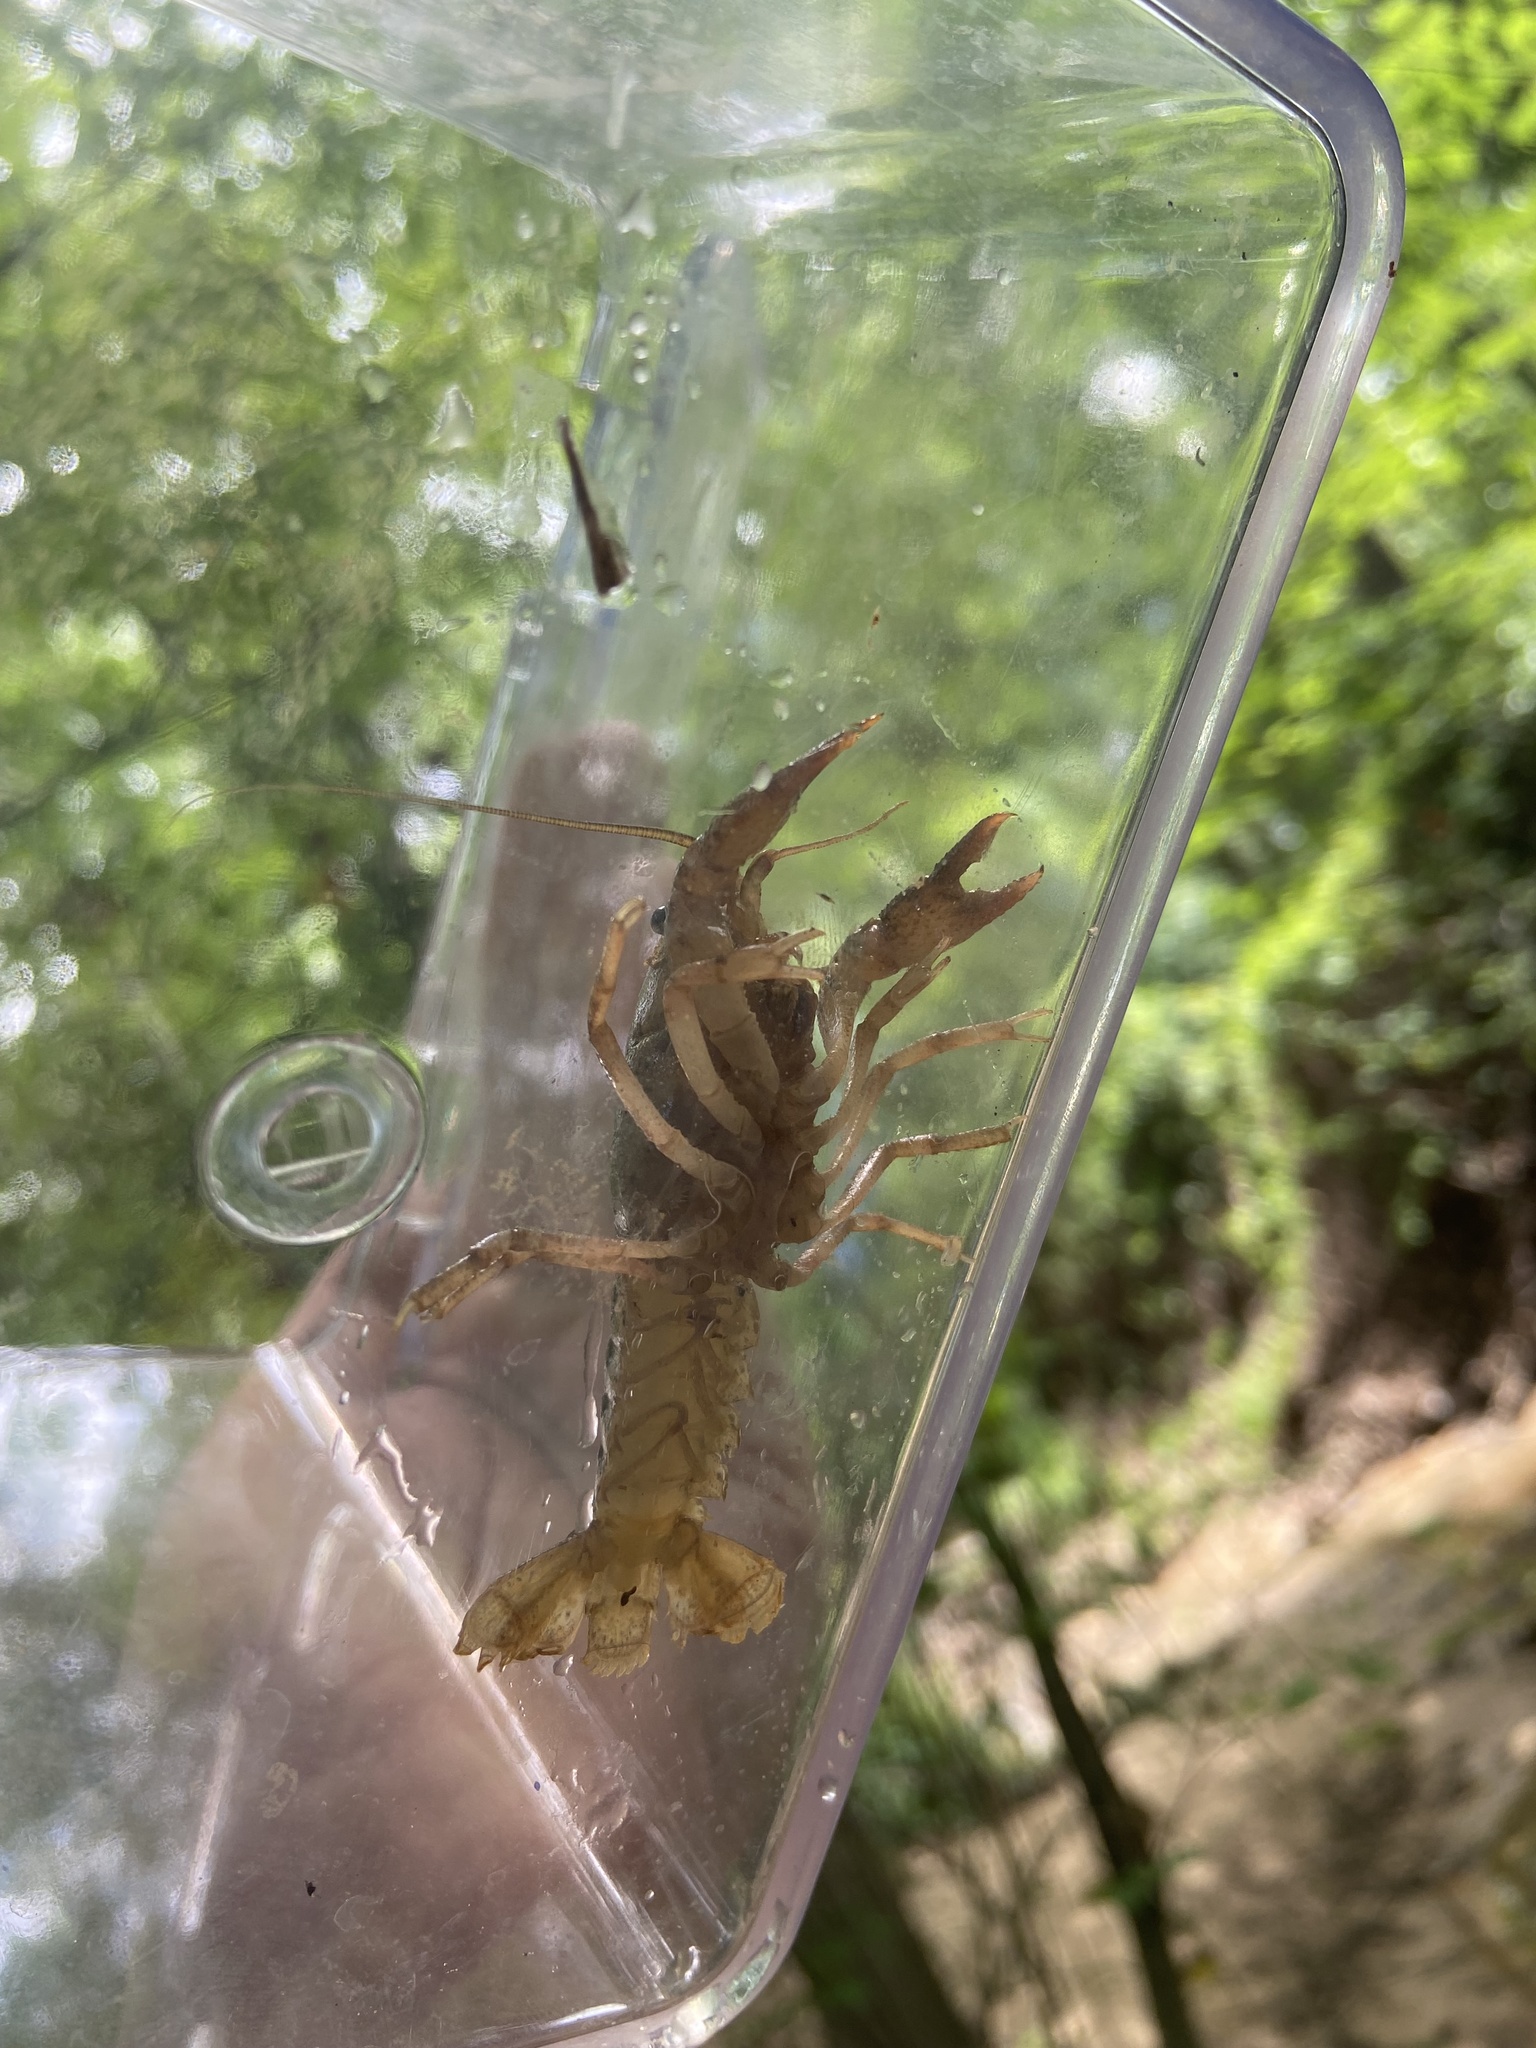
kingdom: Animalia
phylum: Arthropoda
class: Malacostraca
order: Decapoda
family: Cambaridae
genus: Procambarus
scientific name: Procambarus kensleyi
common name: Free state chimney crawfish
